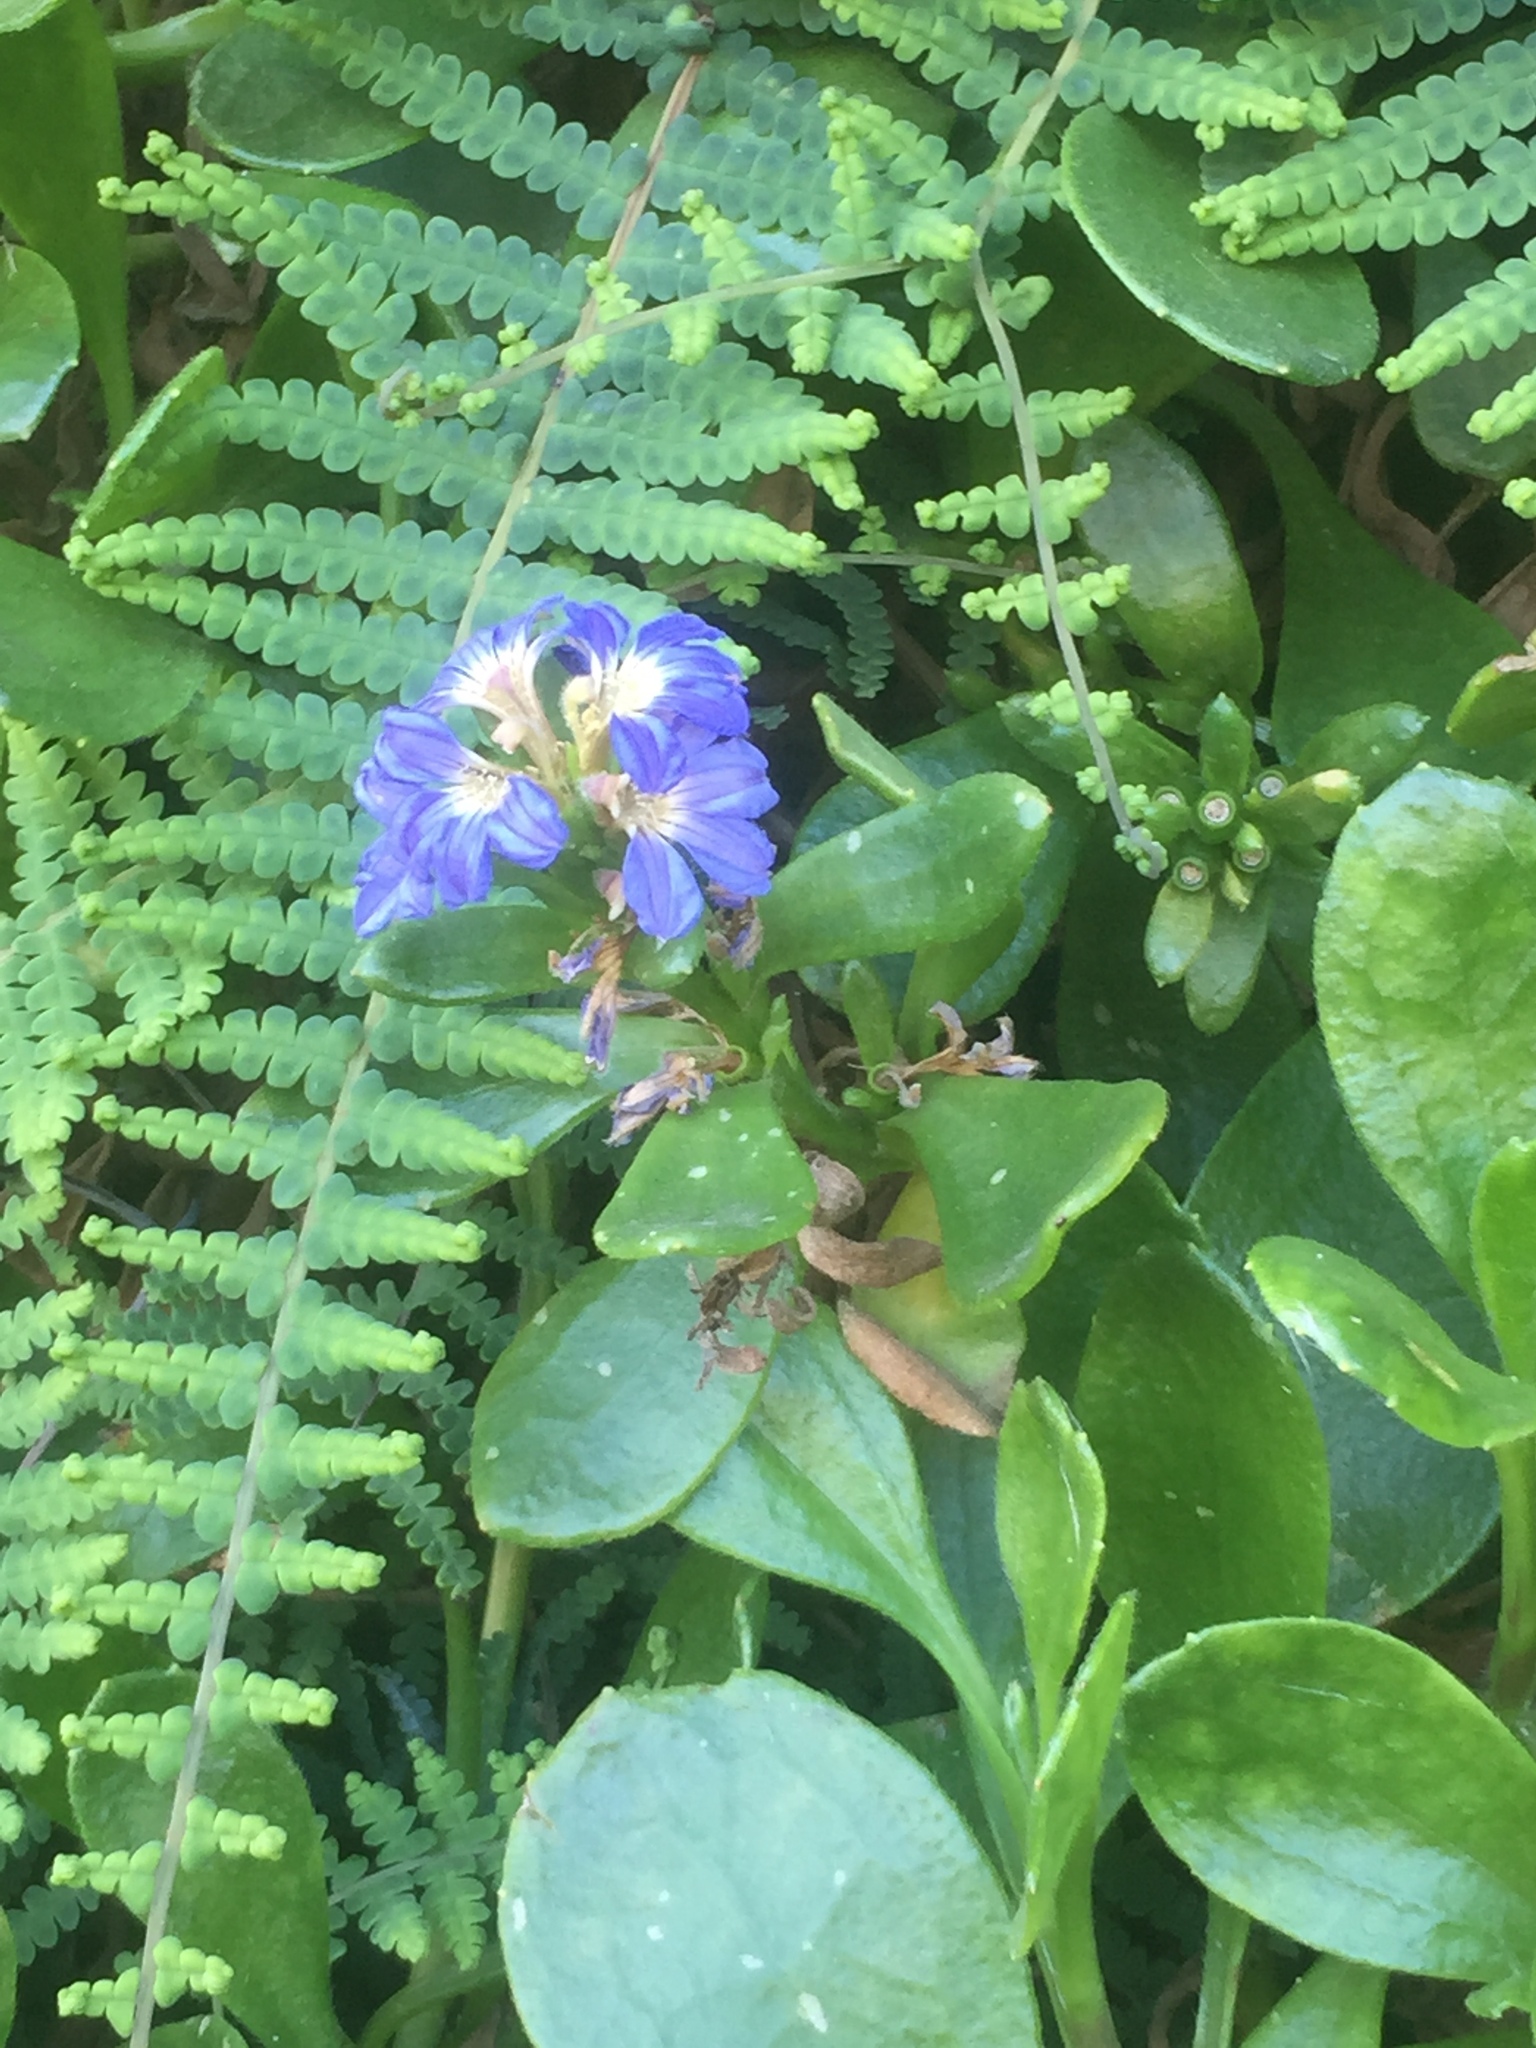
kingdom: Plantae
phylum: Tracheophyta
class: Magnoliopsida
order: Asterales
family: Goodeniaceae
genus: Scaevola
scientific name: Scaevola calendulacea
